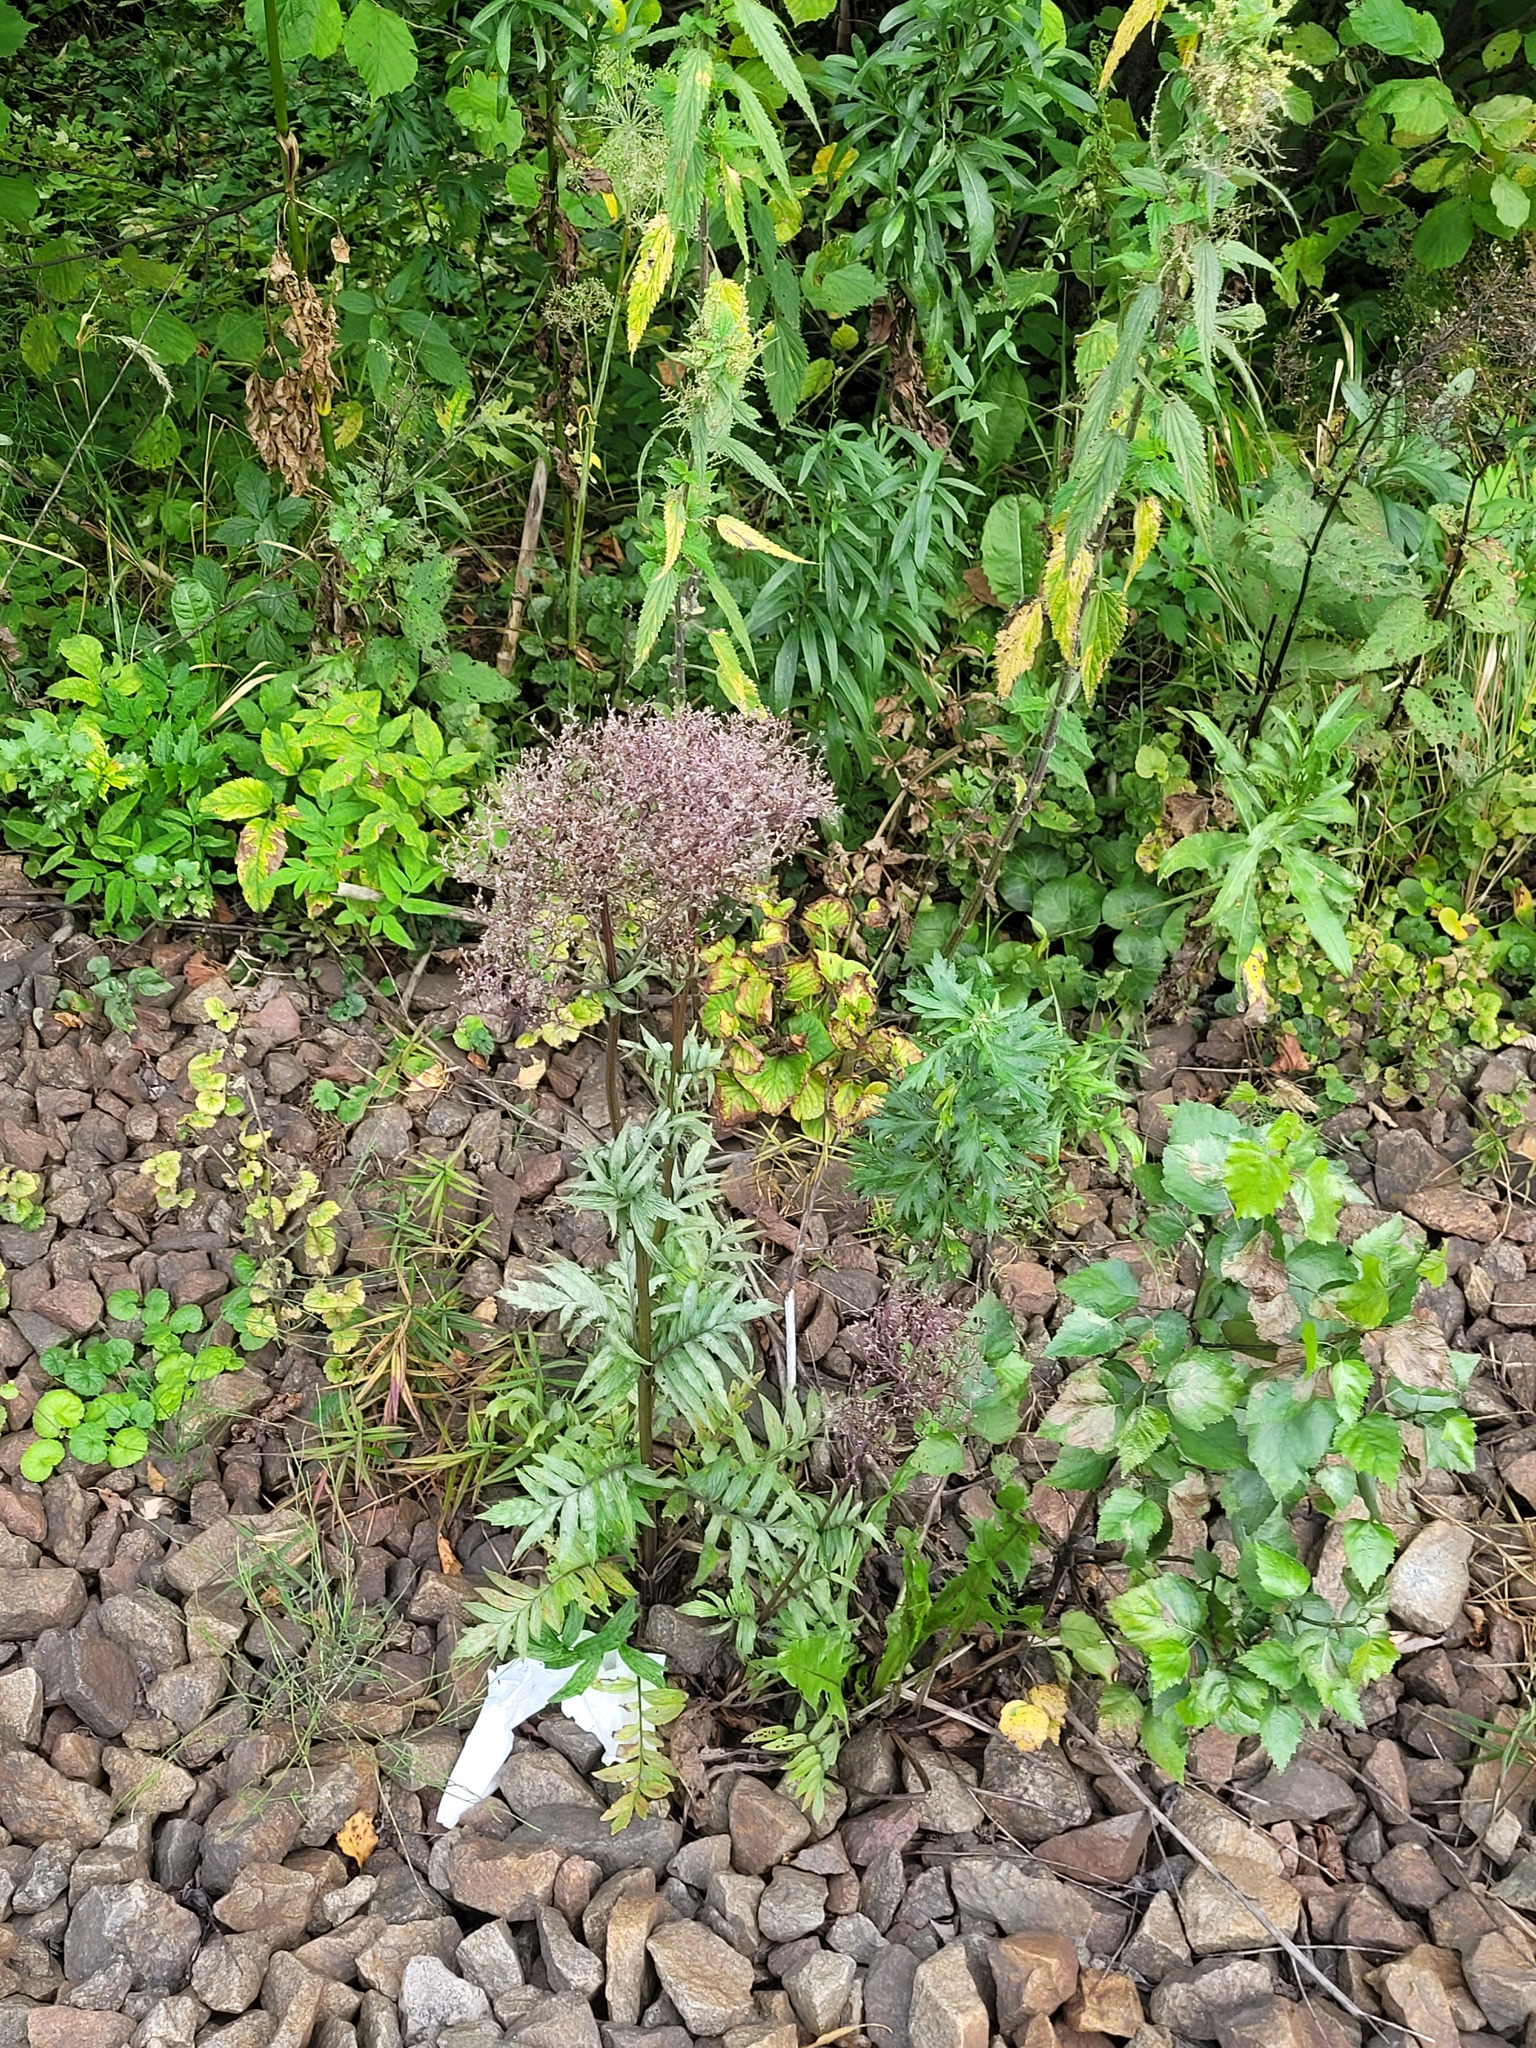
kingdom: Plantae
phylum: Tracheophyta
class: Magnoliopsida
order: Dipsacales
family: Caprifoliaceae
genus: Valeriana
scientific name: Valeriana officinalis
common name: Common valerian
